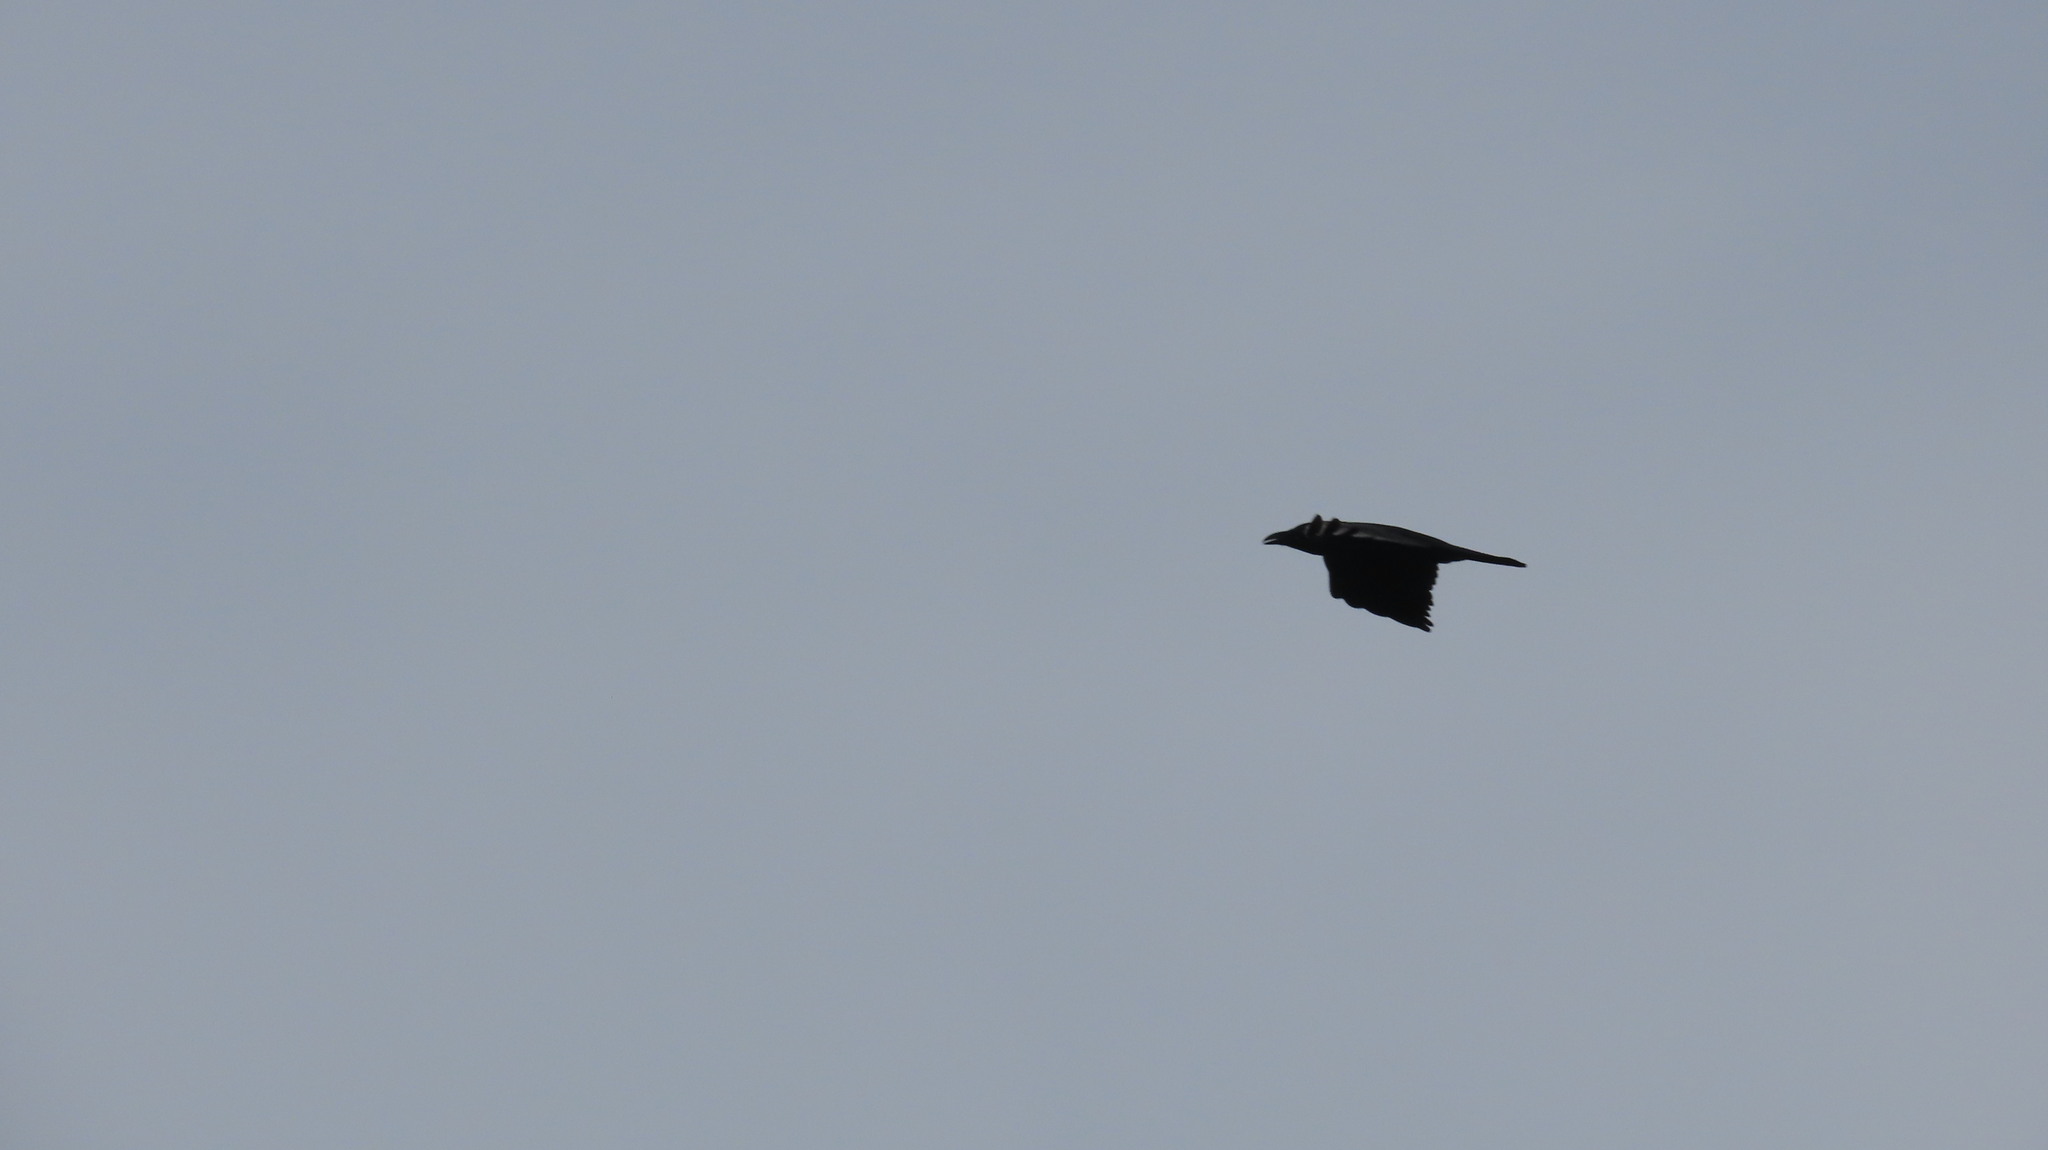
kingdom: Animalia
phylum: Chordata
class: Aves
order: Passeriformes
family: Corvidae
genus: Corvus
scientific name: Corvus splendens
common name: House crow
